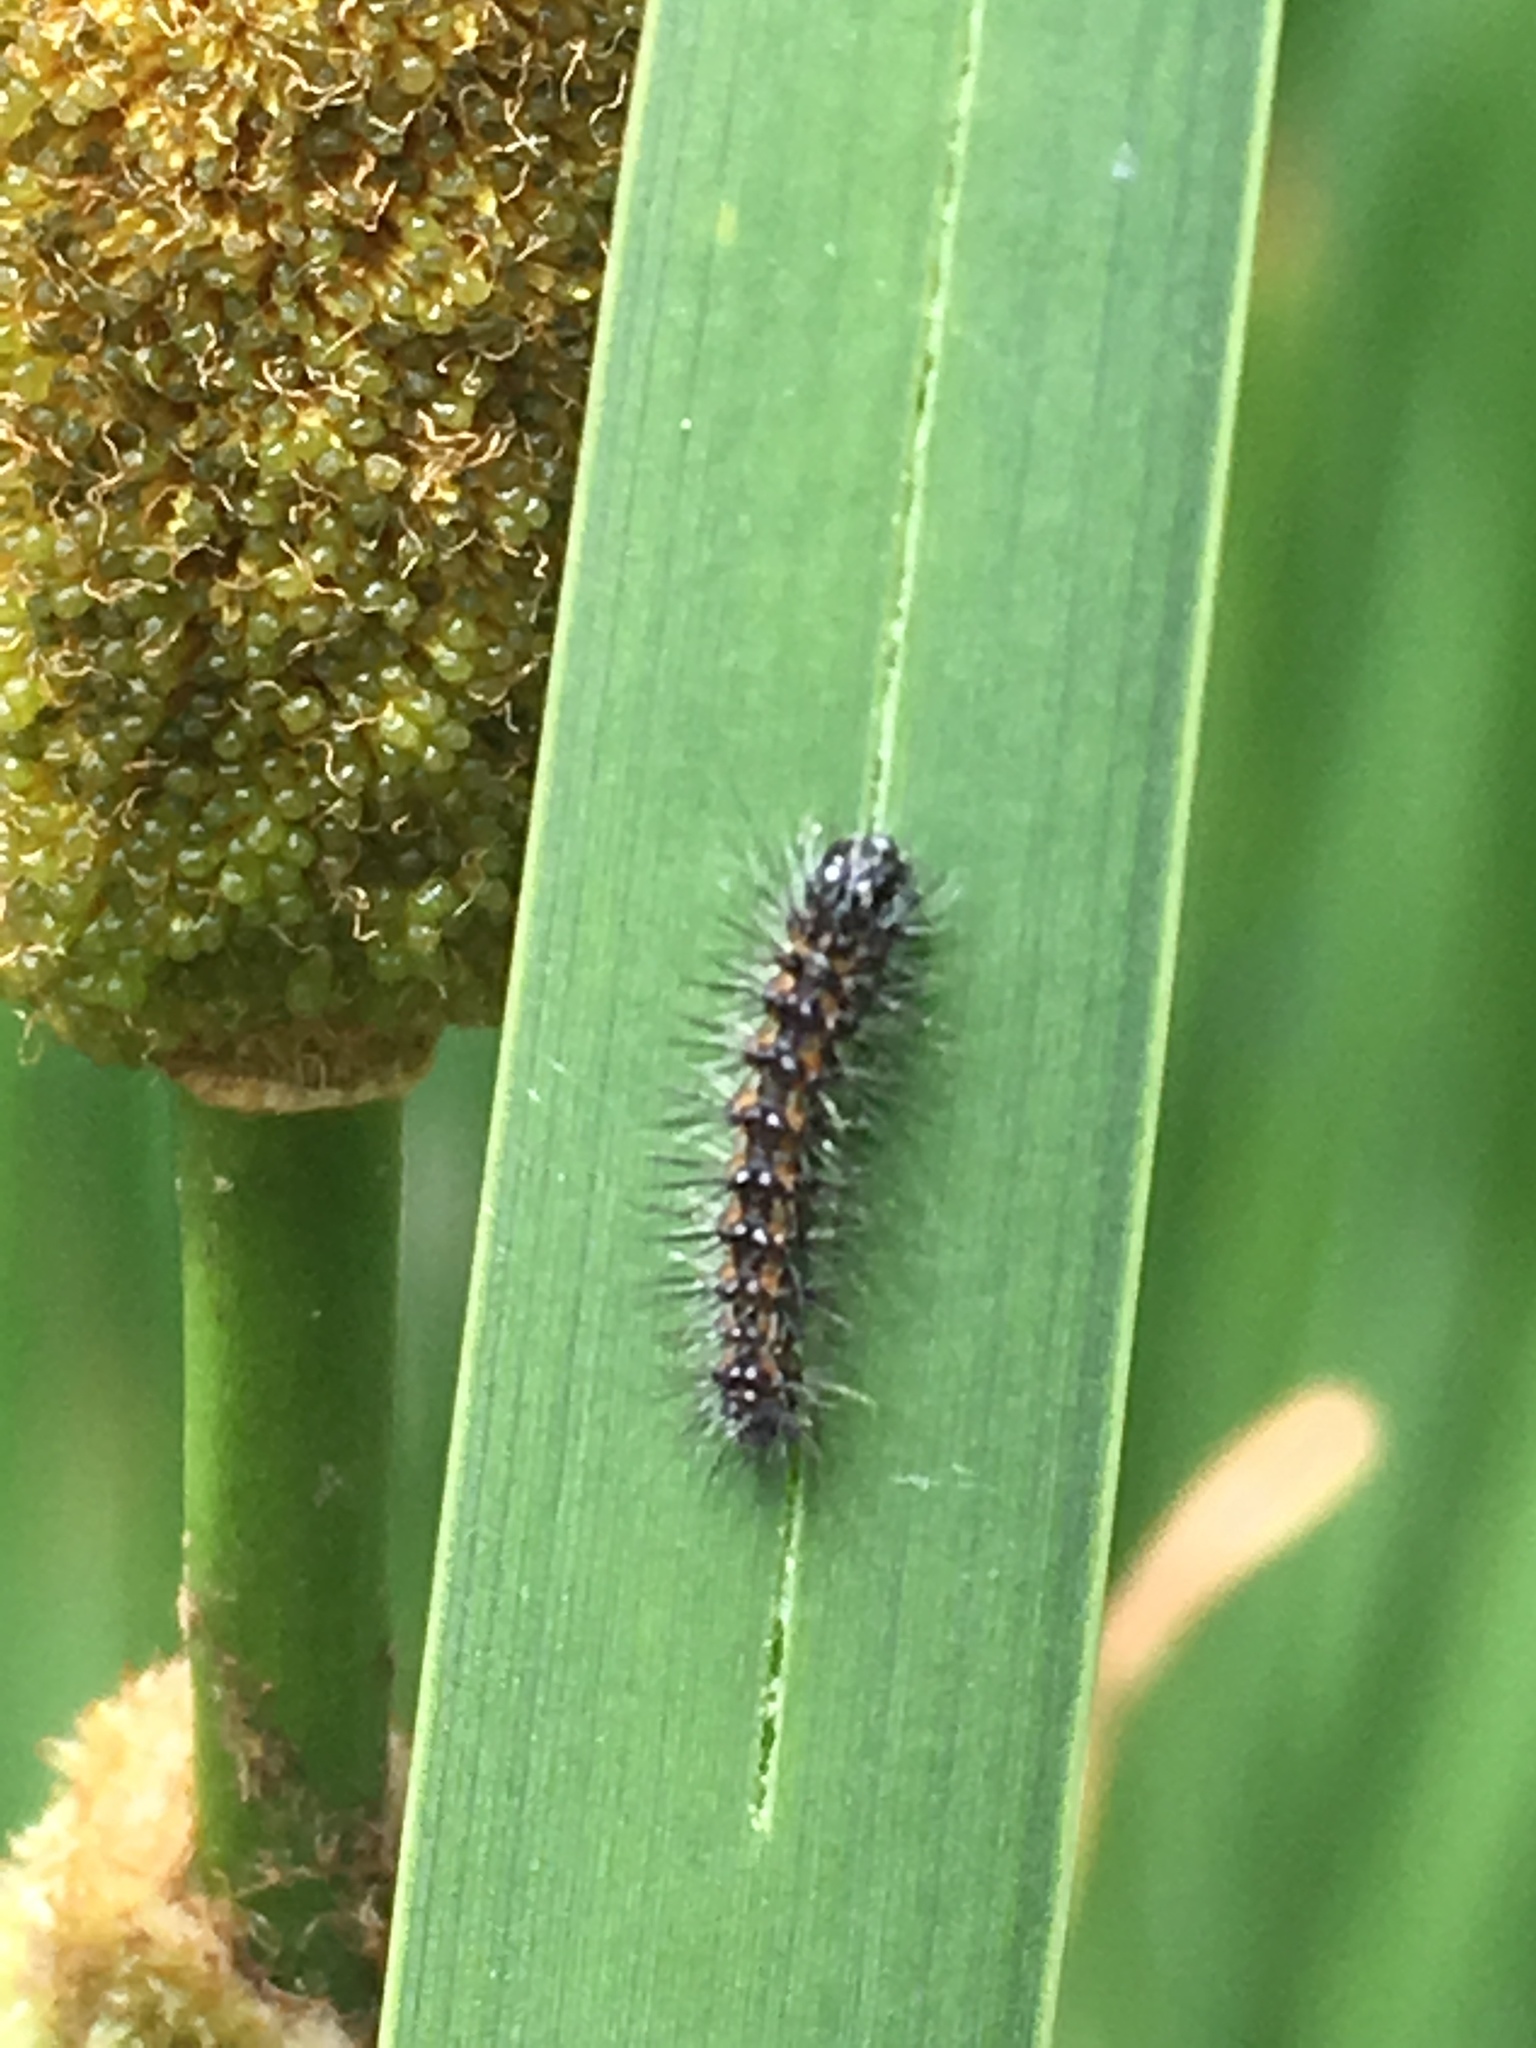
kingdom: Animalia
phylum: Arthropoda
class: Insecta
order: Lepidoptera
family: Noctuidae
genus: Acronicta
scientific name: Acronicta insularis
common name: Henry's marsh moth
